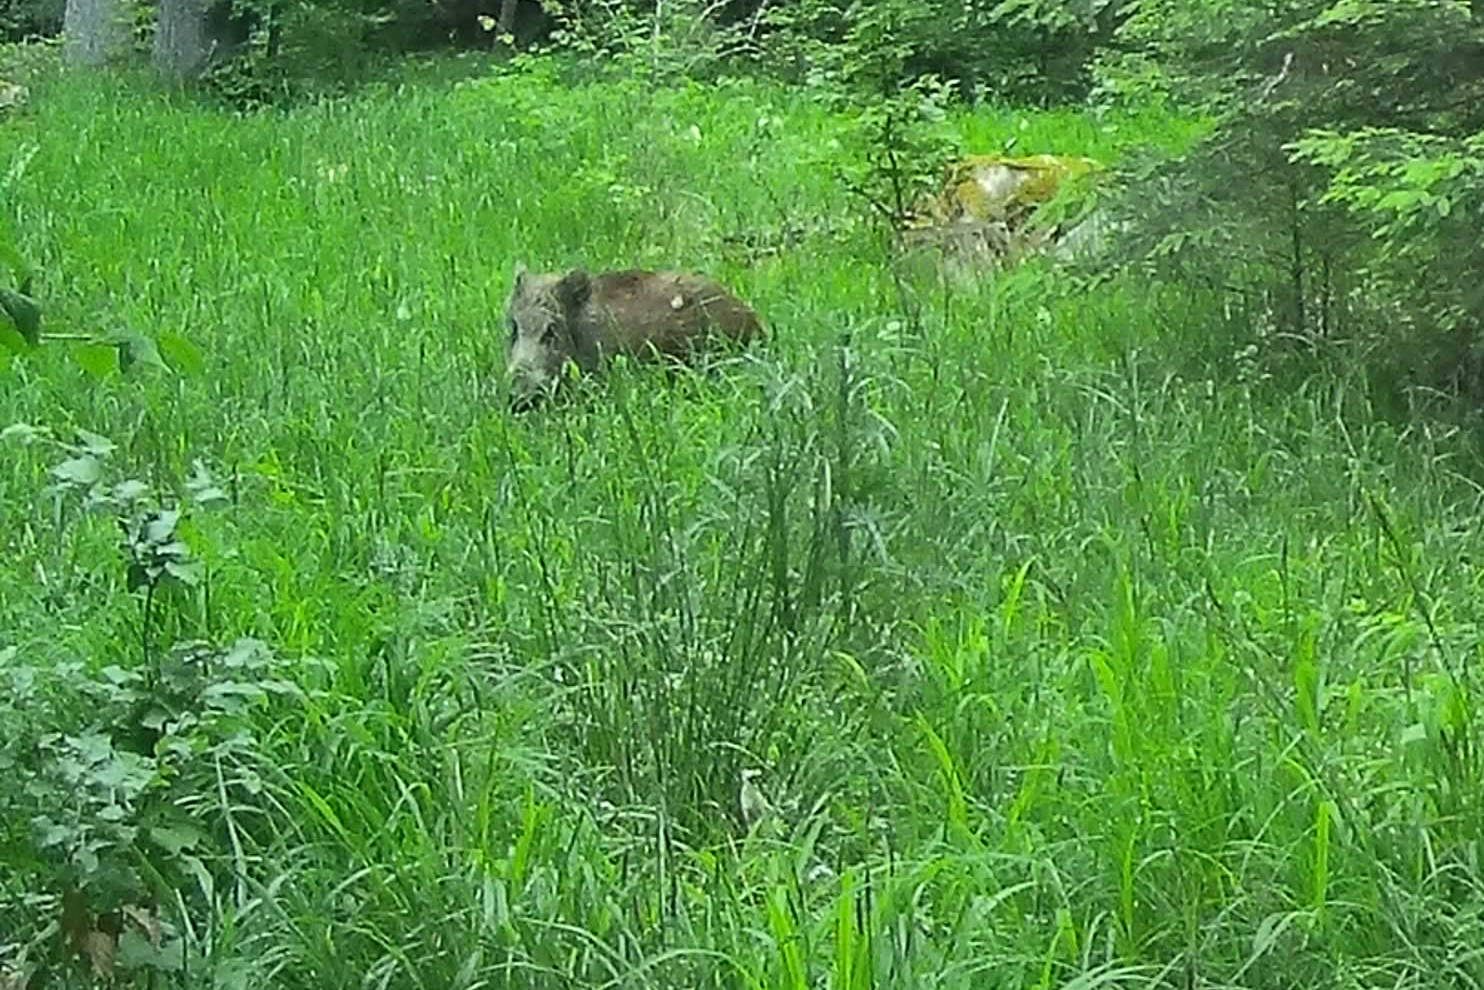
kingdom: Animalia
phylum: Chordata
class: Mammalia
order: Artiodactyla
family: Suidae
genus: Sus
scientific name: Sus scrofa
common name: Wild boar
